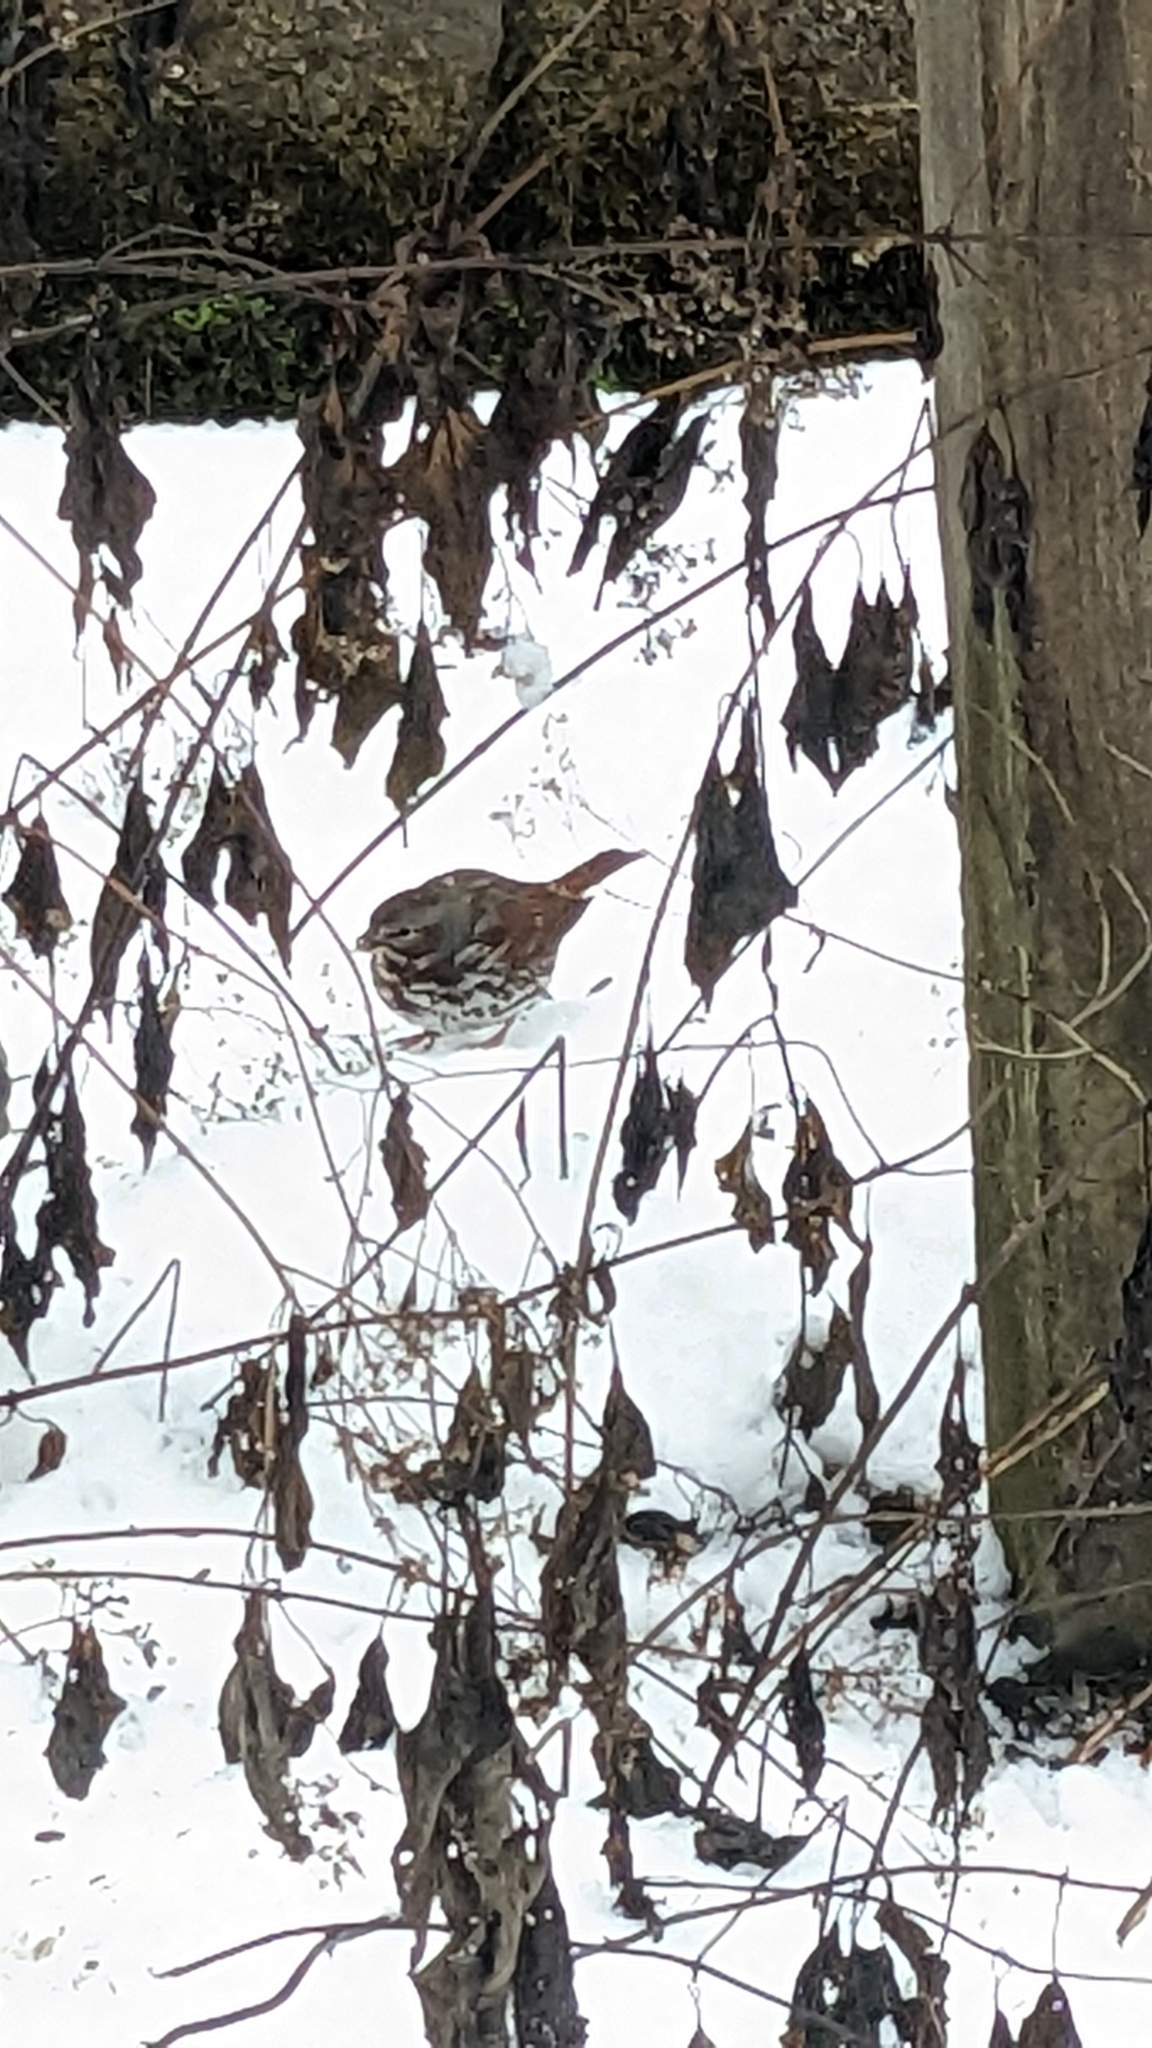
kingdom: Animalia
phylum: Chordata
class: Aves
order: Passeriformes
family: Passerellidae
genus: Passerella
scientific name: Passerella iliaca
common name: Fox sparrow
